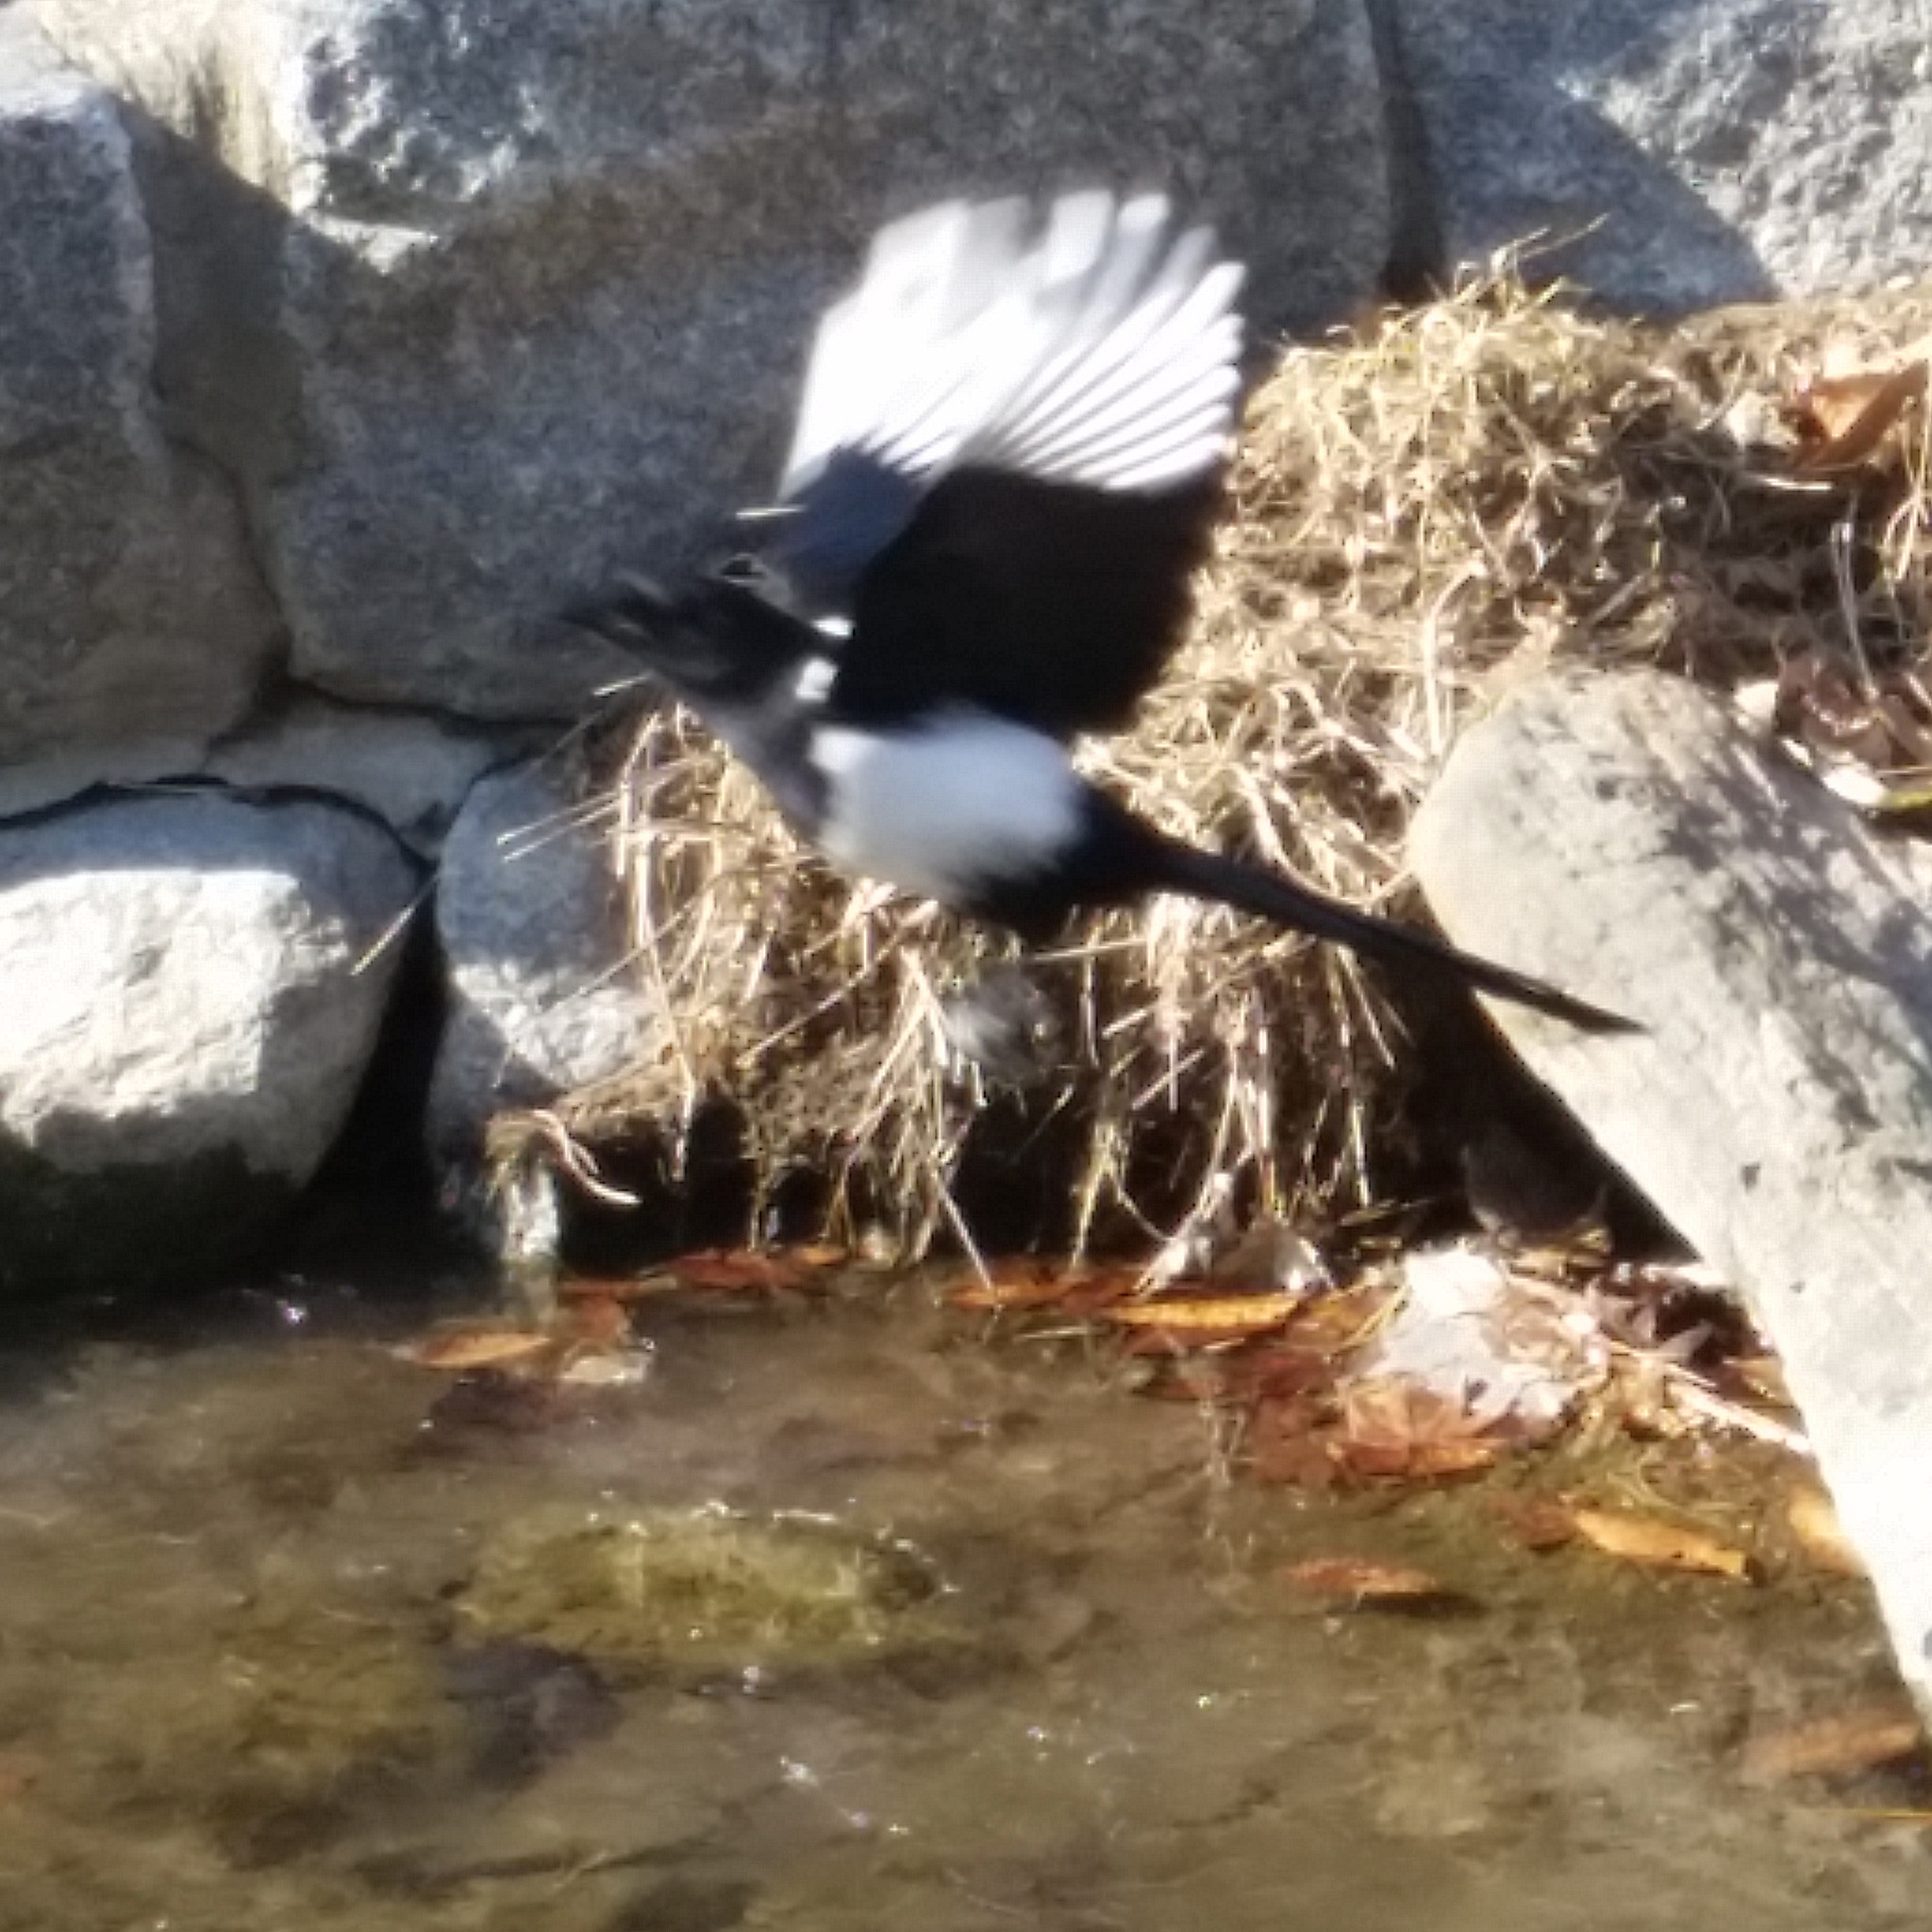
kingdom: Animalia
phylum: Chordata
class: Aves
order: Passeriformes
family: Corvidae
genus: Pica
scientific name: Pica serica
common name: Oriental magpie
